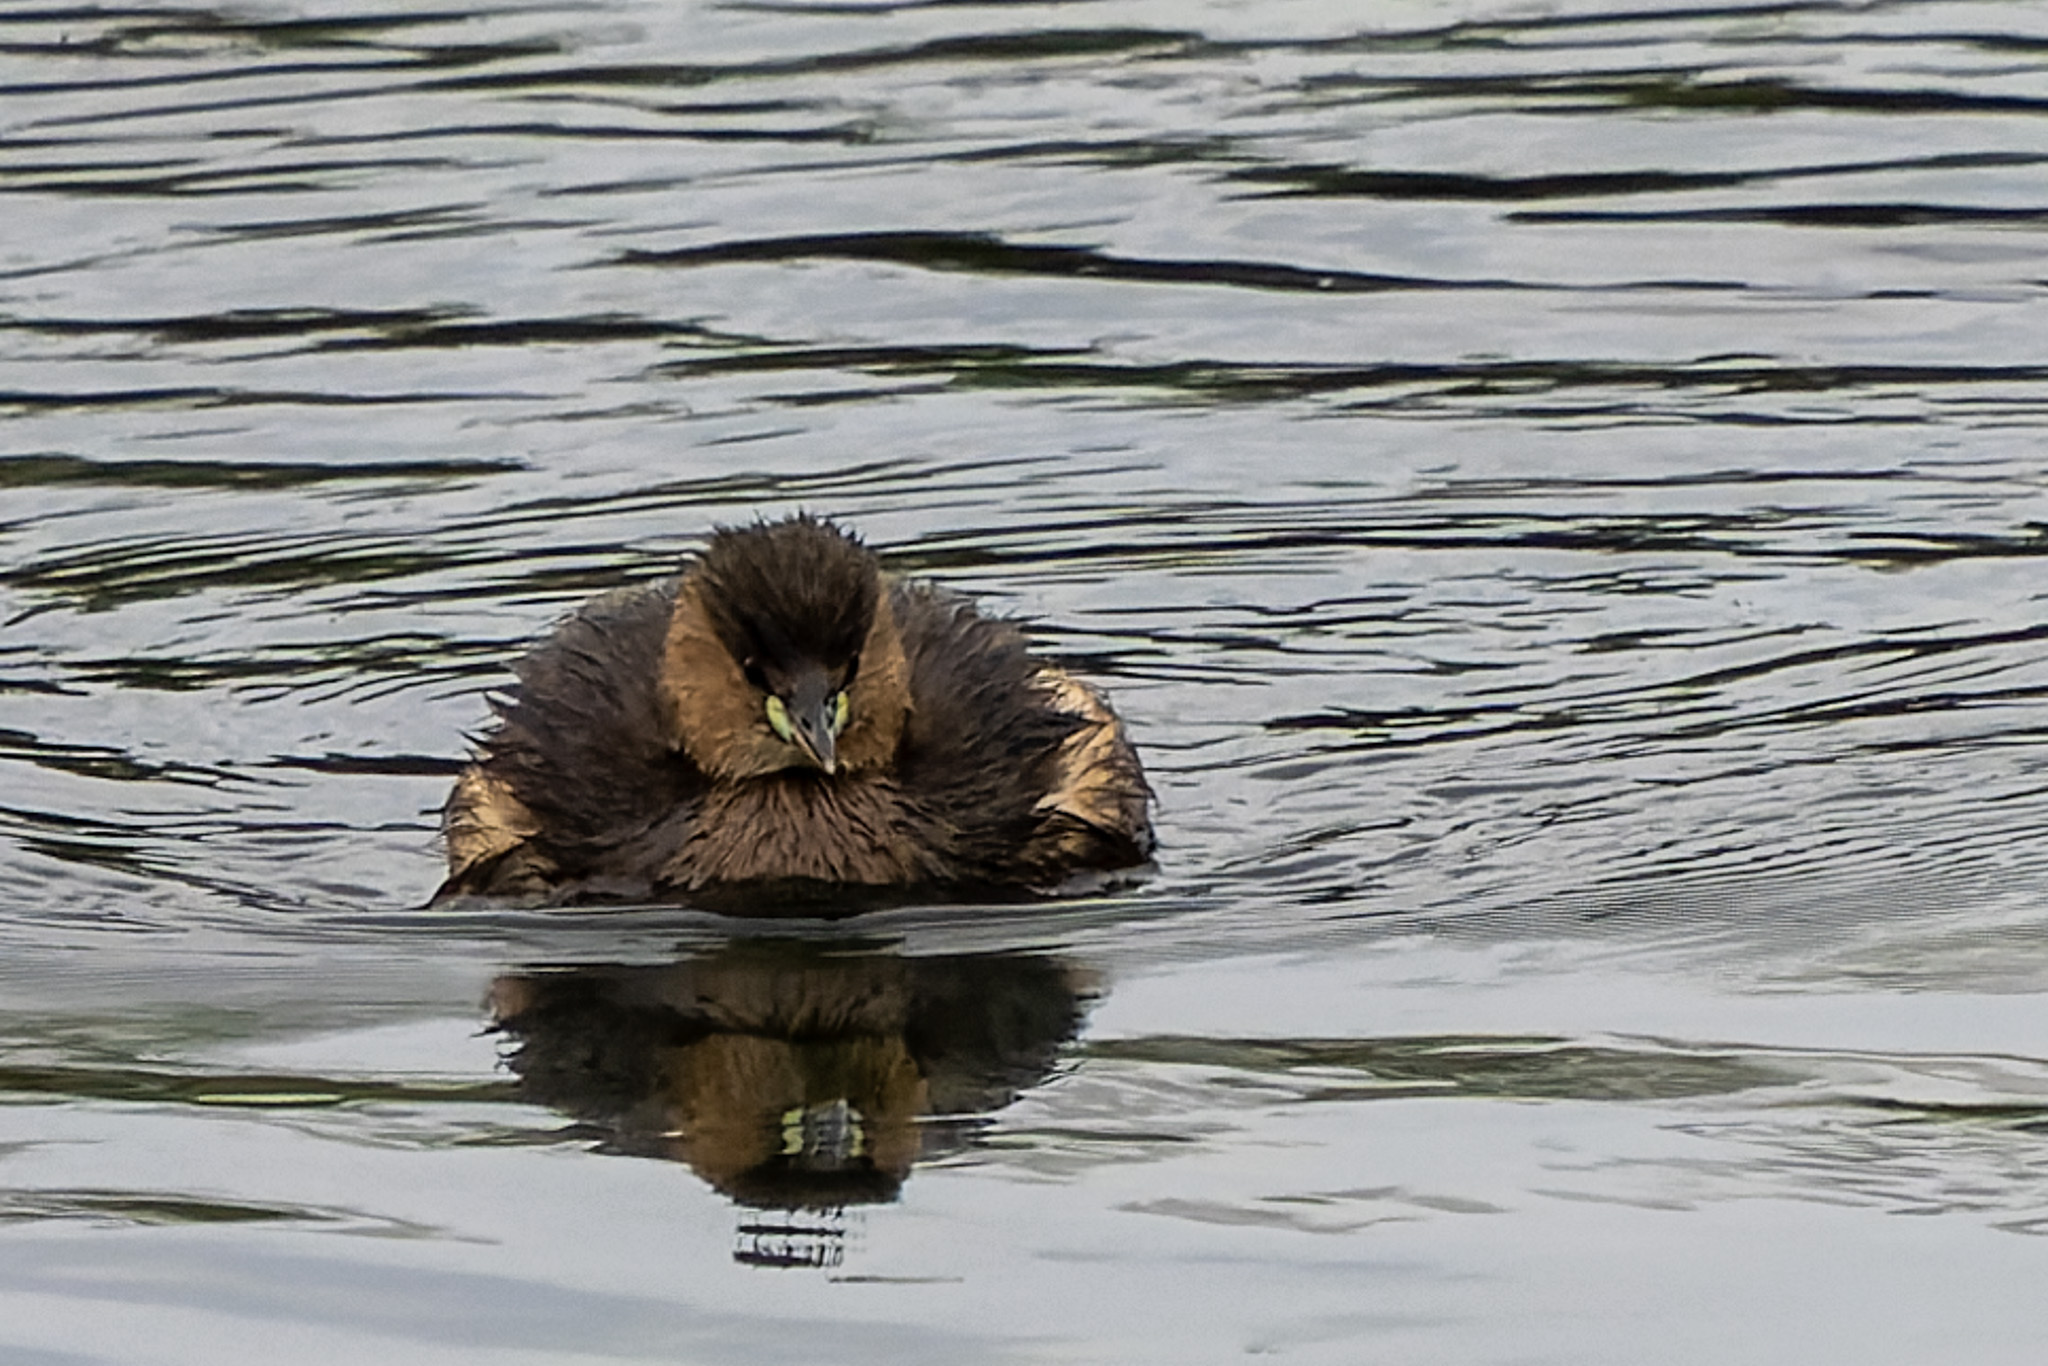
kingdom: Animalia
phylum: Chordata
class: Aves
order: Podicipediformes
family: Podicipedidae
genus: Tachybaptus
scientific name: Tachybaptus ruficollis
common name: Little grebe
